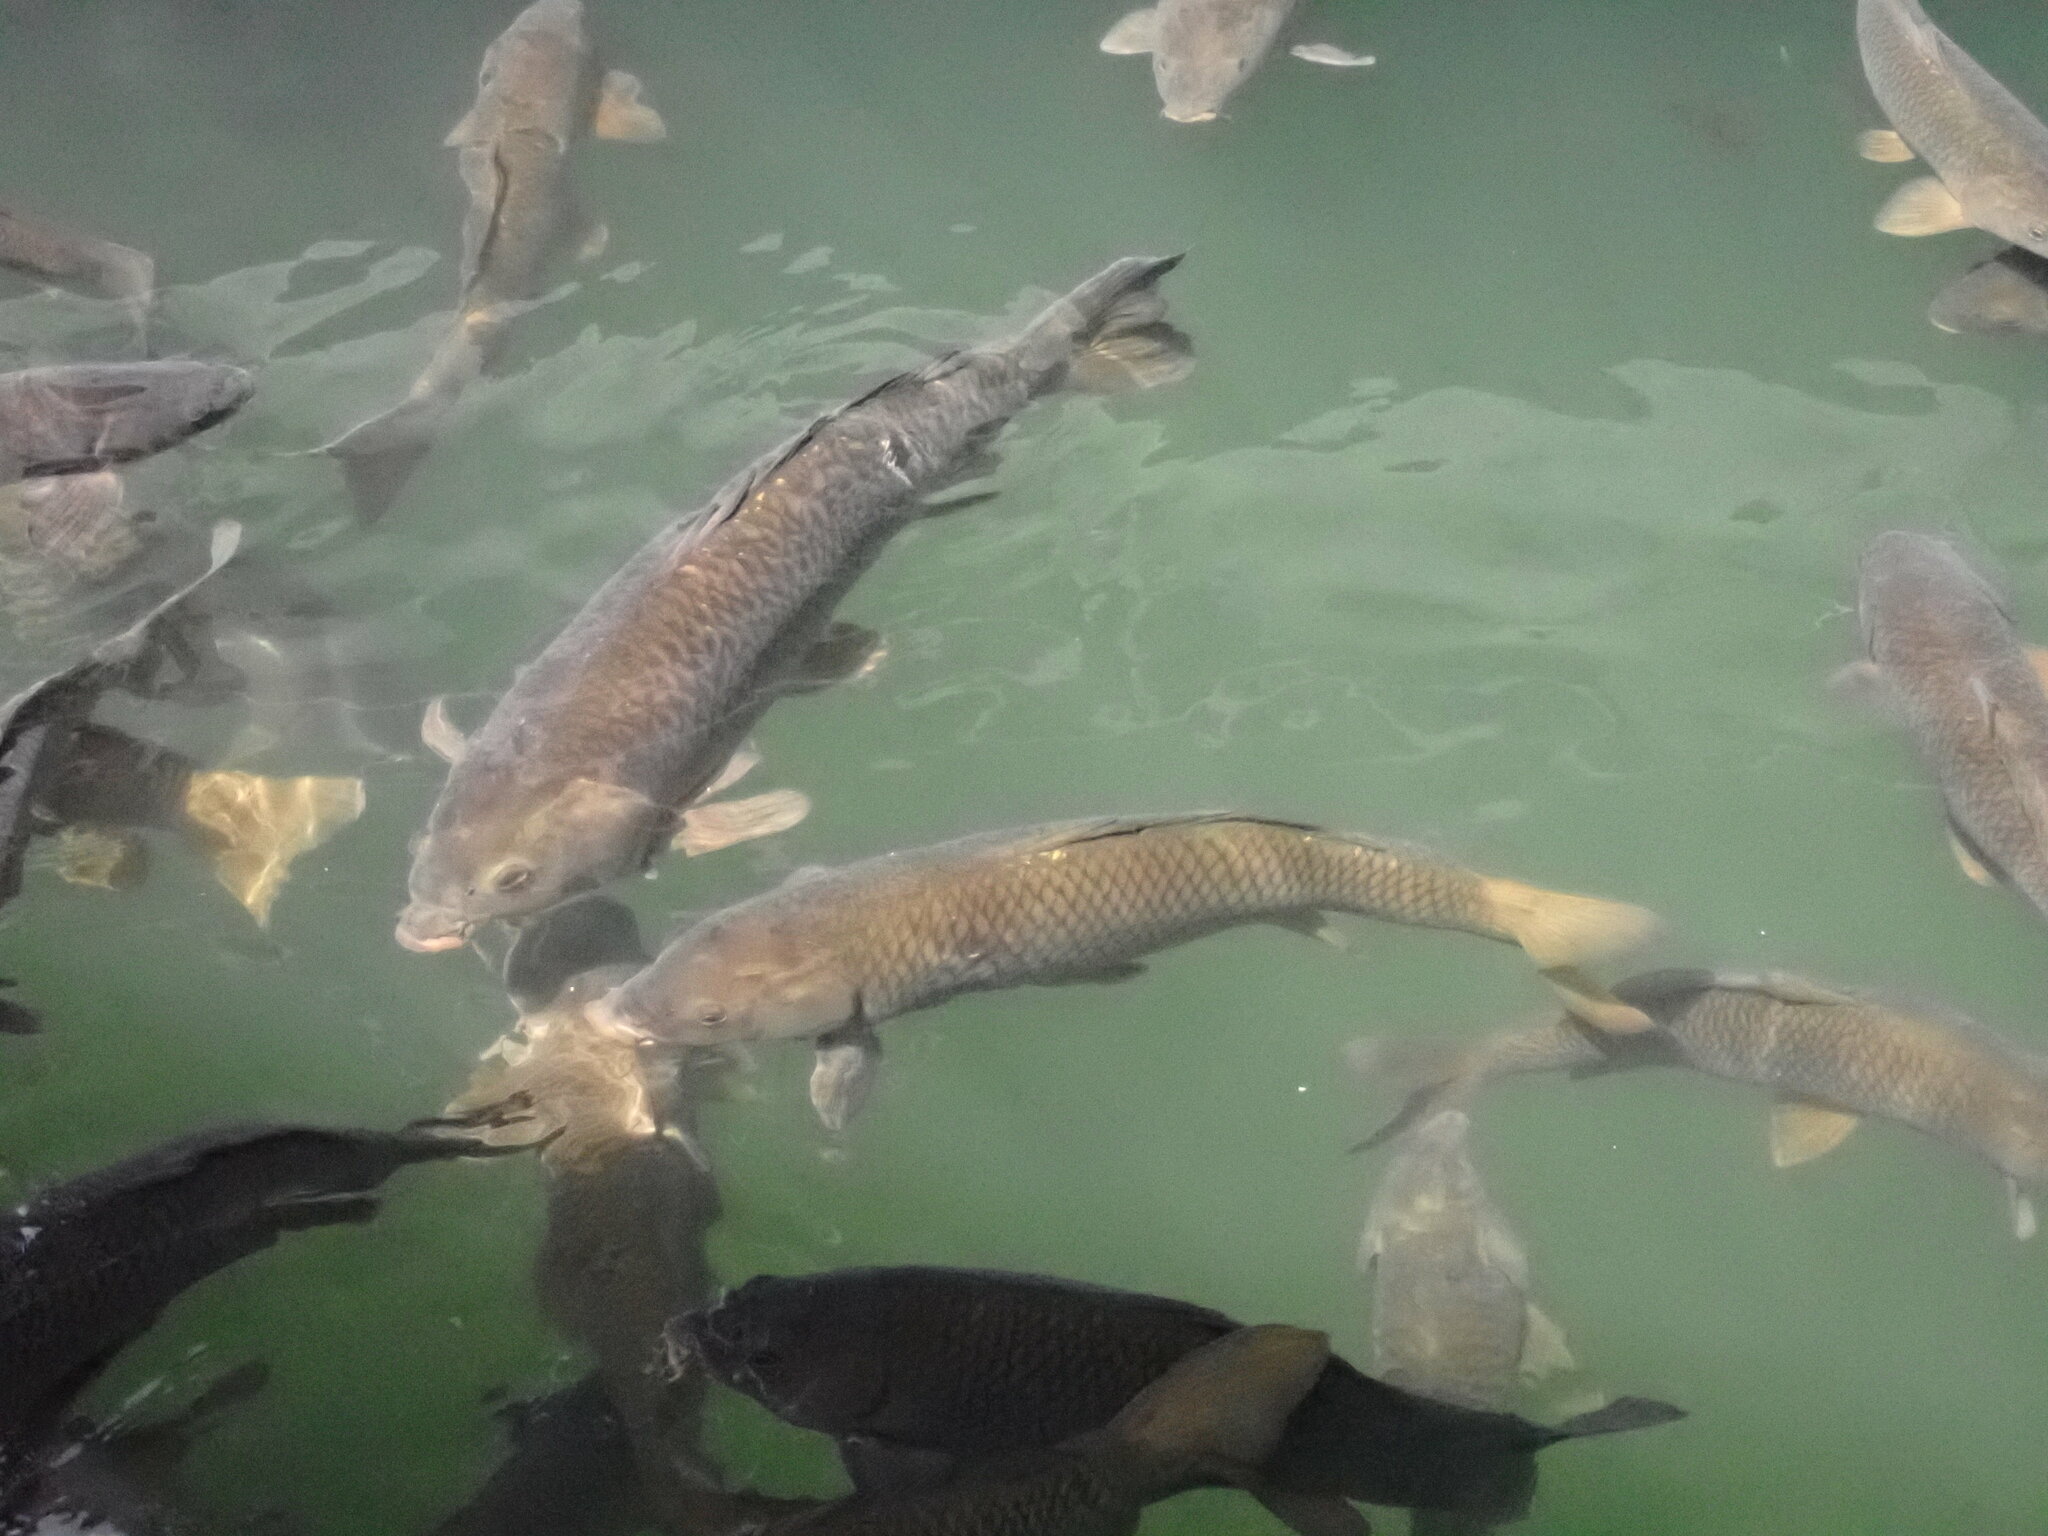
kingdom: Animalia
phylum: Chordata
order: Cypriniformes
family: Cyprinidae
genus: Cyprinus
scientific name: Cyprinus carpio
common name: Common carp
